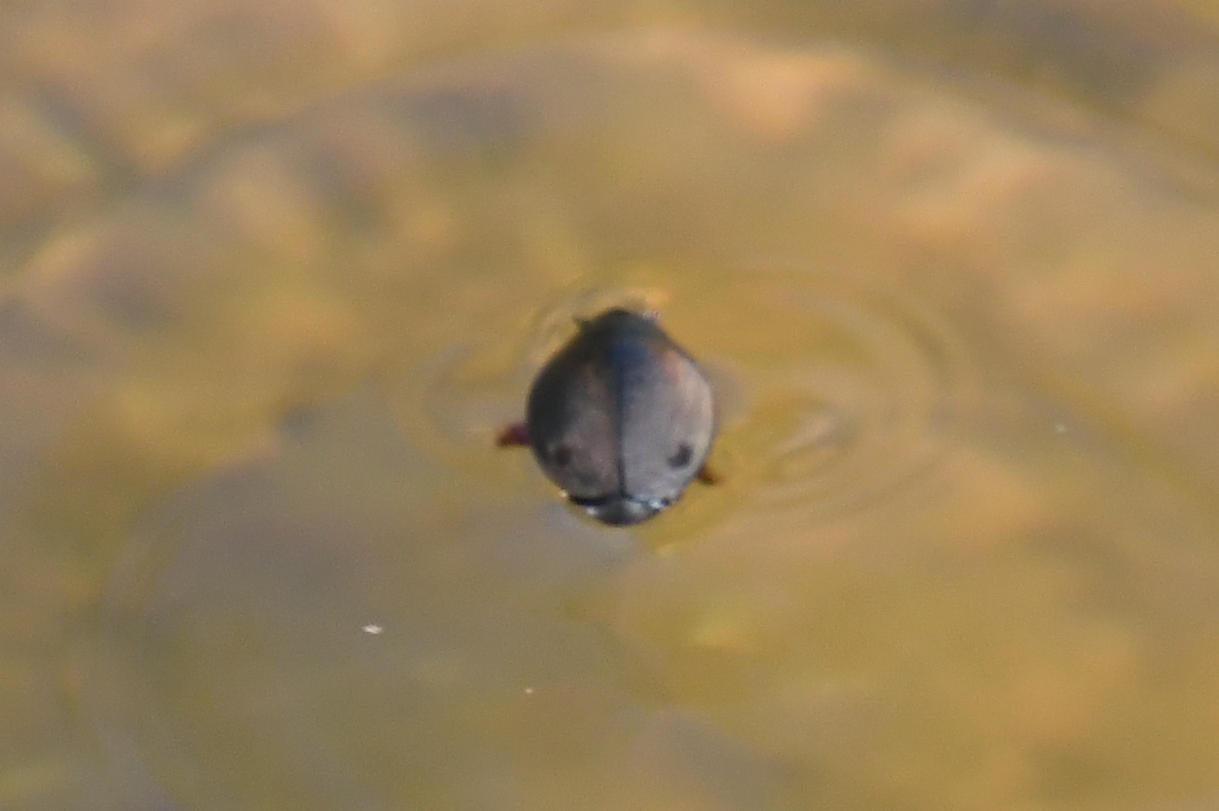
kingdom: Animalia
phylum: Arthropoda
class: Insecta
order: Coleoptera
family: Gyrinidae
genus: Dineutus
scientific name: Dineutus
